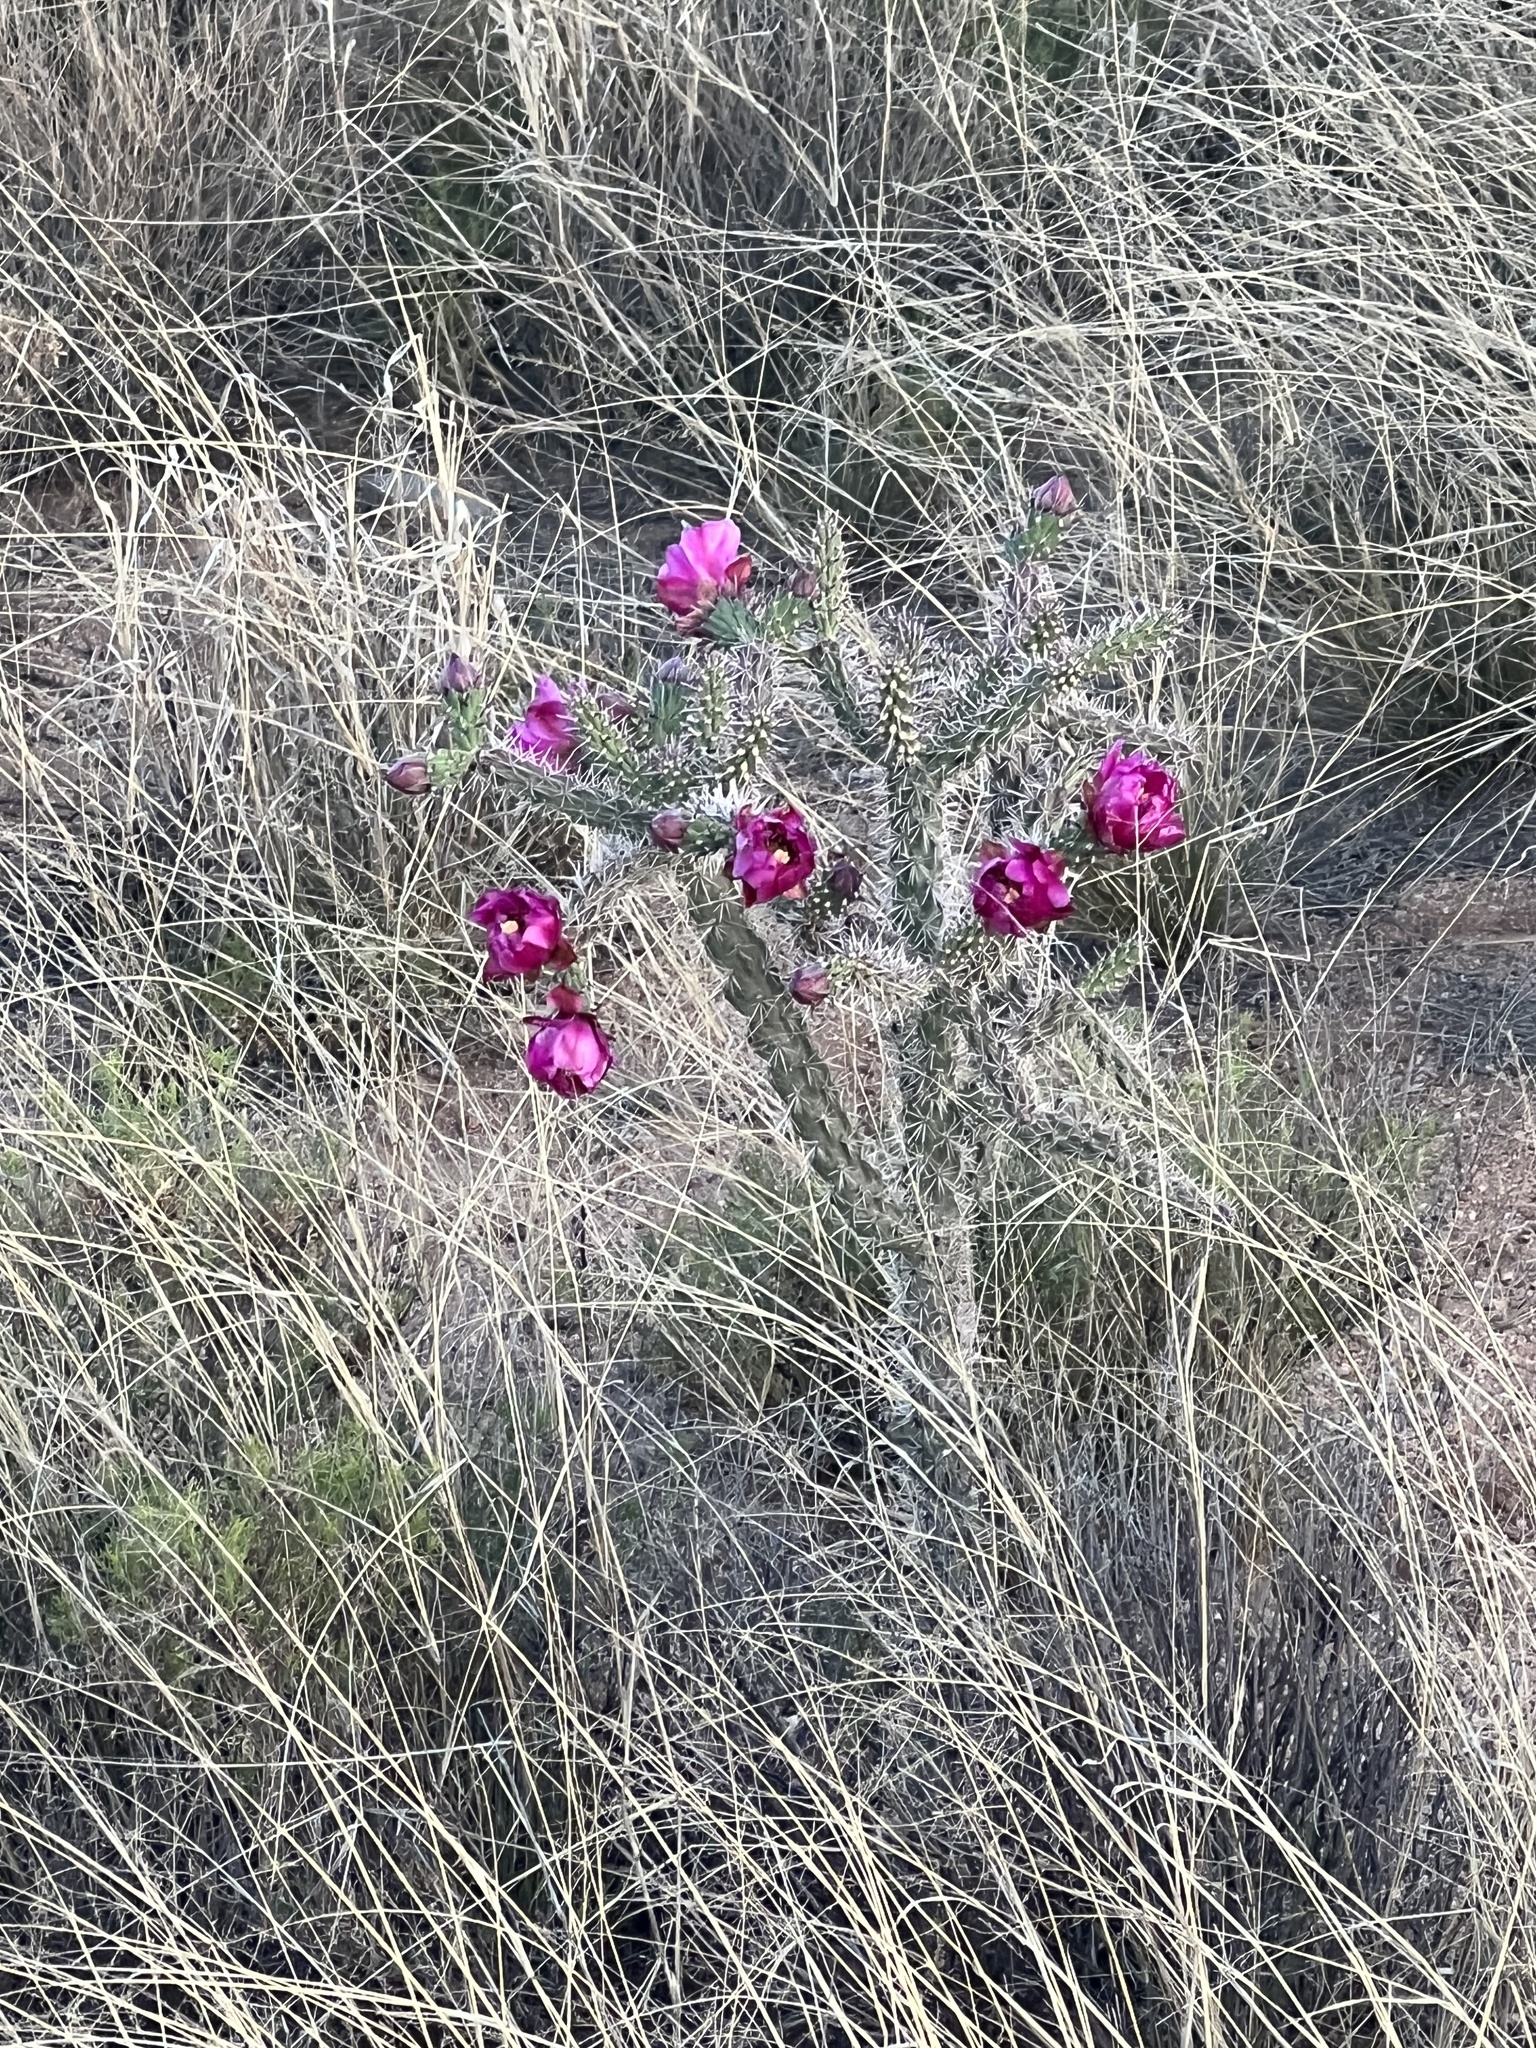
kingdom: Plantae
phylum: Tracheophyta
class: Magnoliopsida
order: Caryophyllales
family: Cactaceae
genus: Cylindropuntia
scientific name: Cylindropuntia imbricata
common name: Candelabrum cactus
